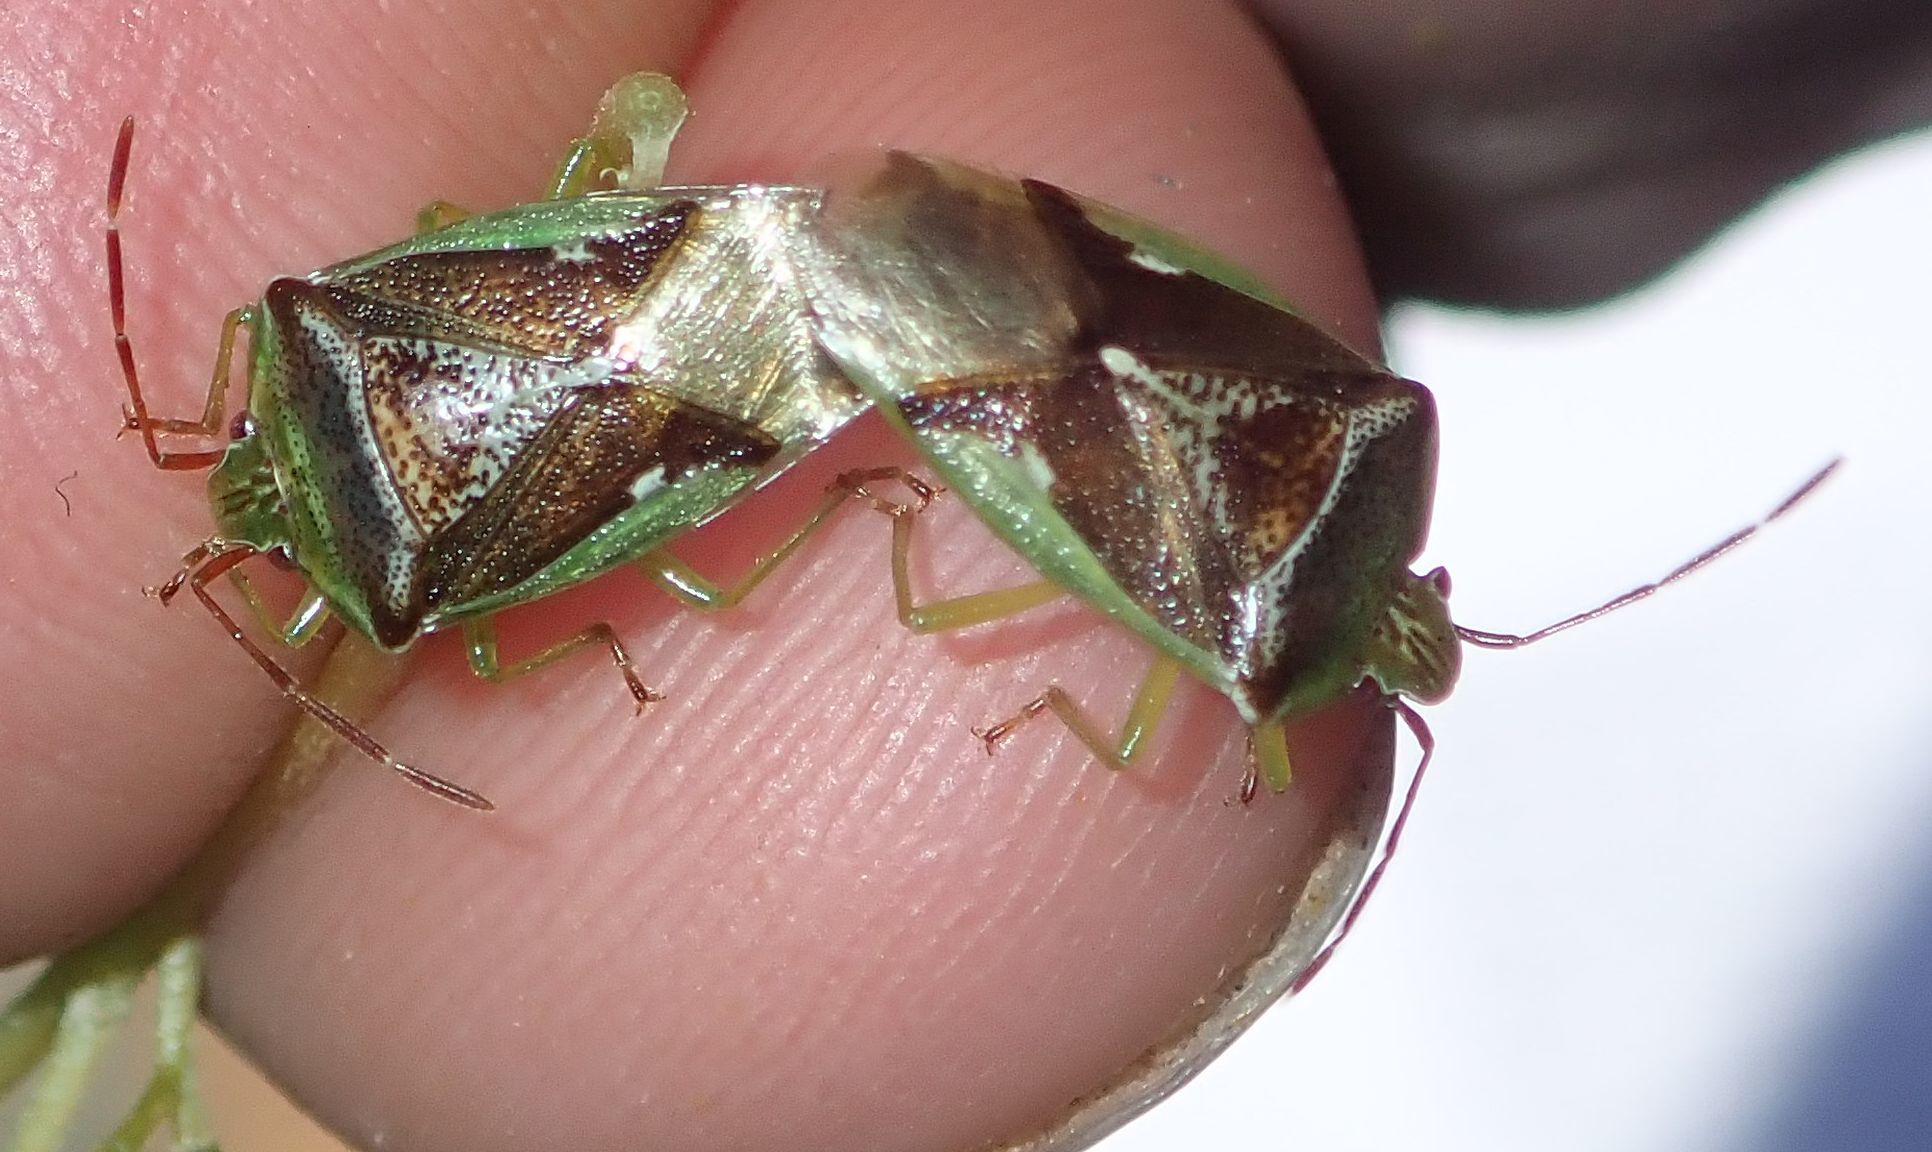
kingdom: Animalia
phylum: Arthropoda
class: Insecta
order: Hemiptera
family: Acanthosomatidae
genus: Oncacontias
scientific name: Oncacontias vittatus
